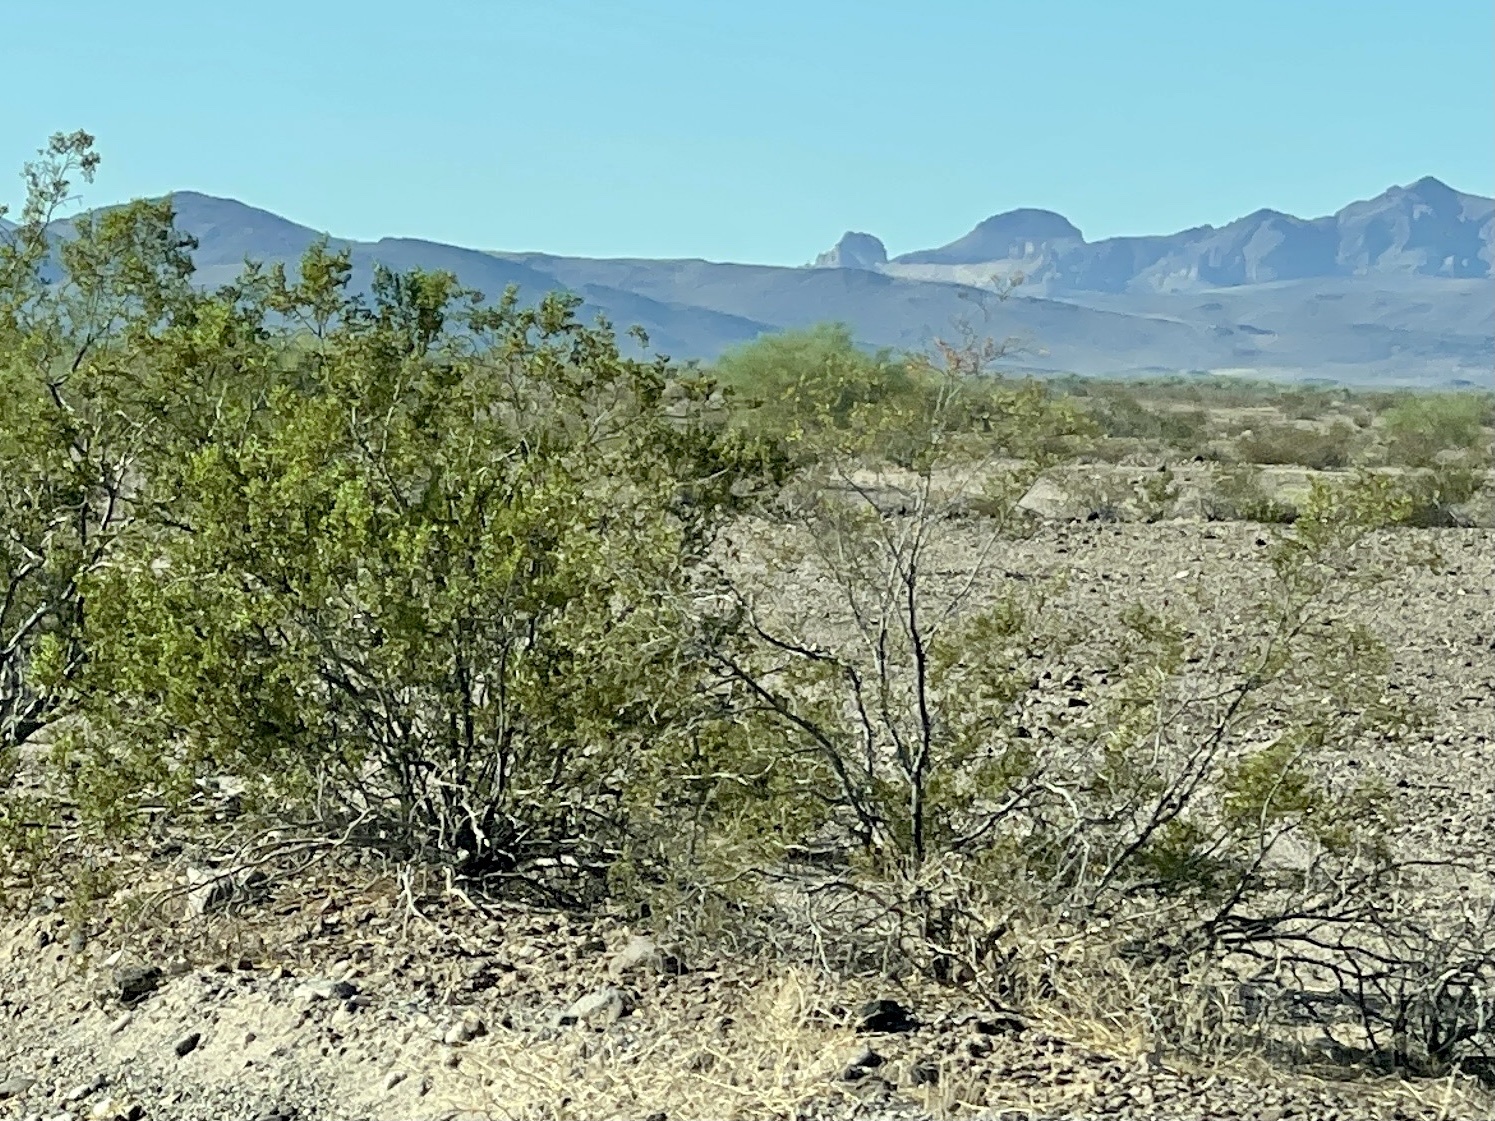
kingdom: Plantae
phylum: Tracheophyta
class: Magnoliopsida
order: Zygophyllales
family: Zygophyllaceae
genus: Larrea
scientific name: Larrea tridentata
